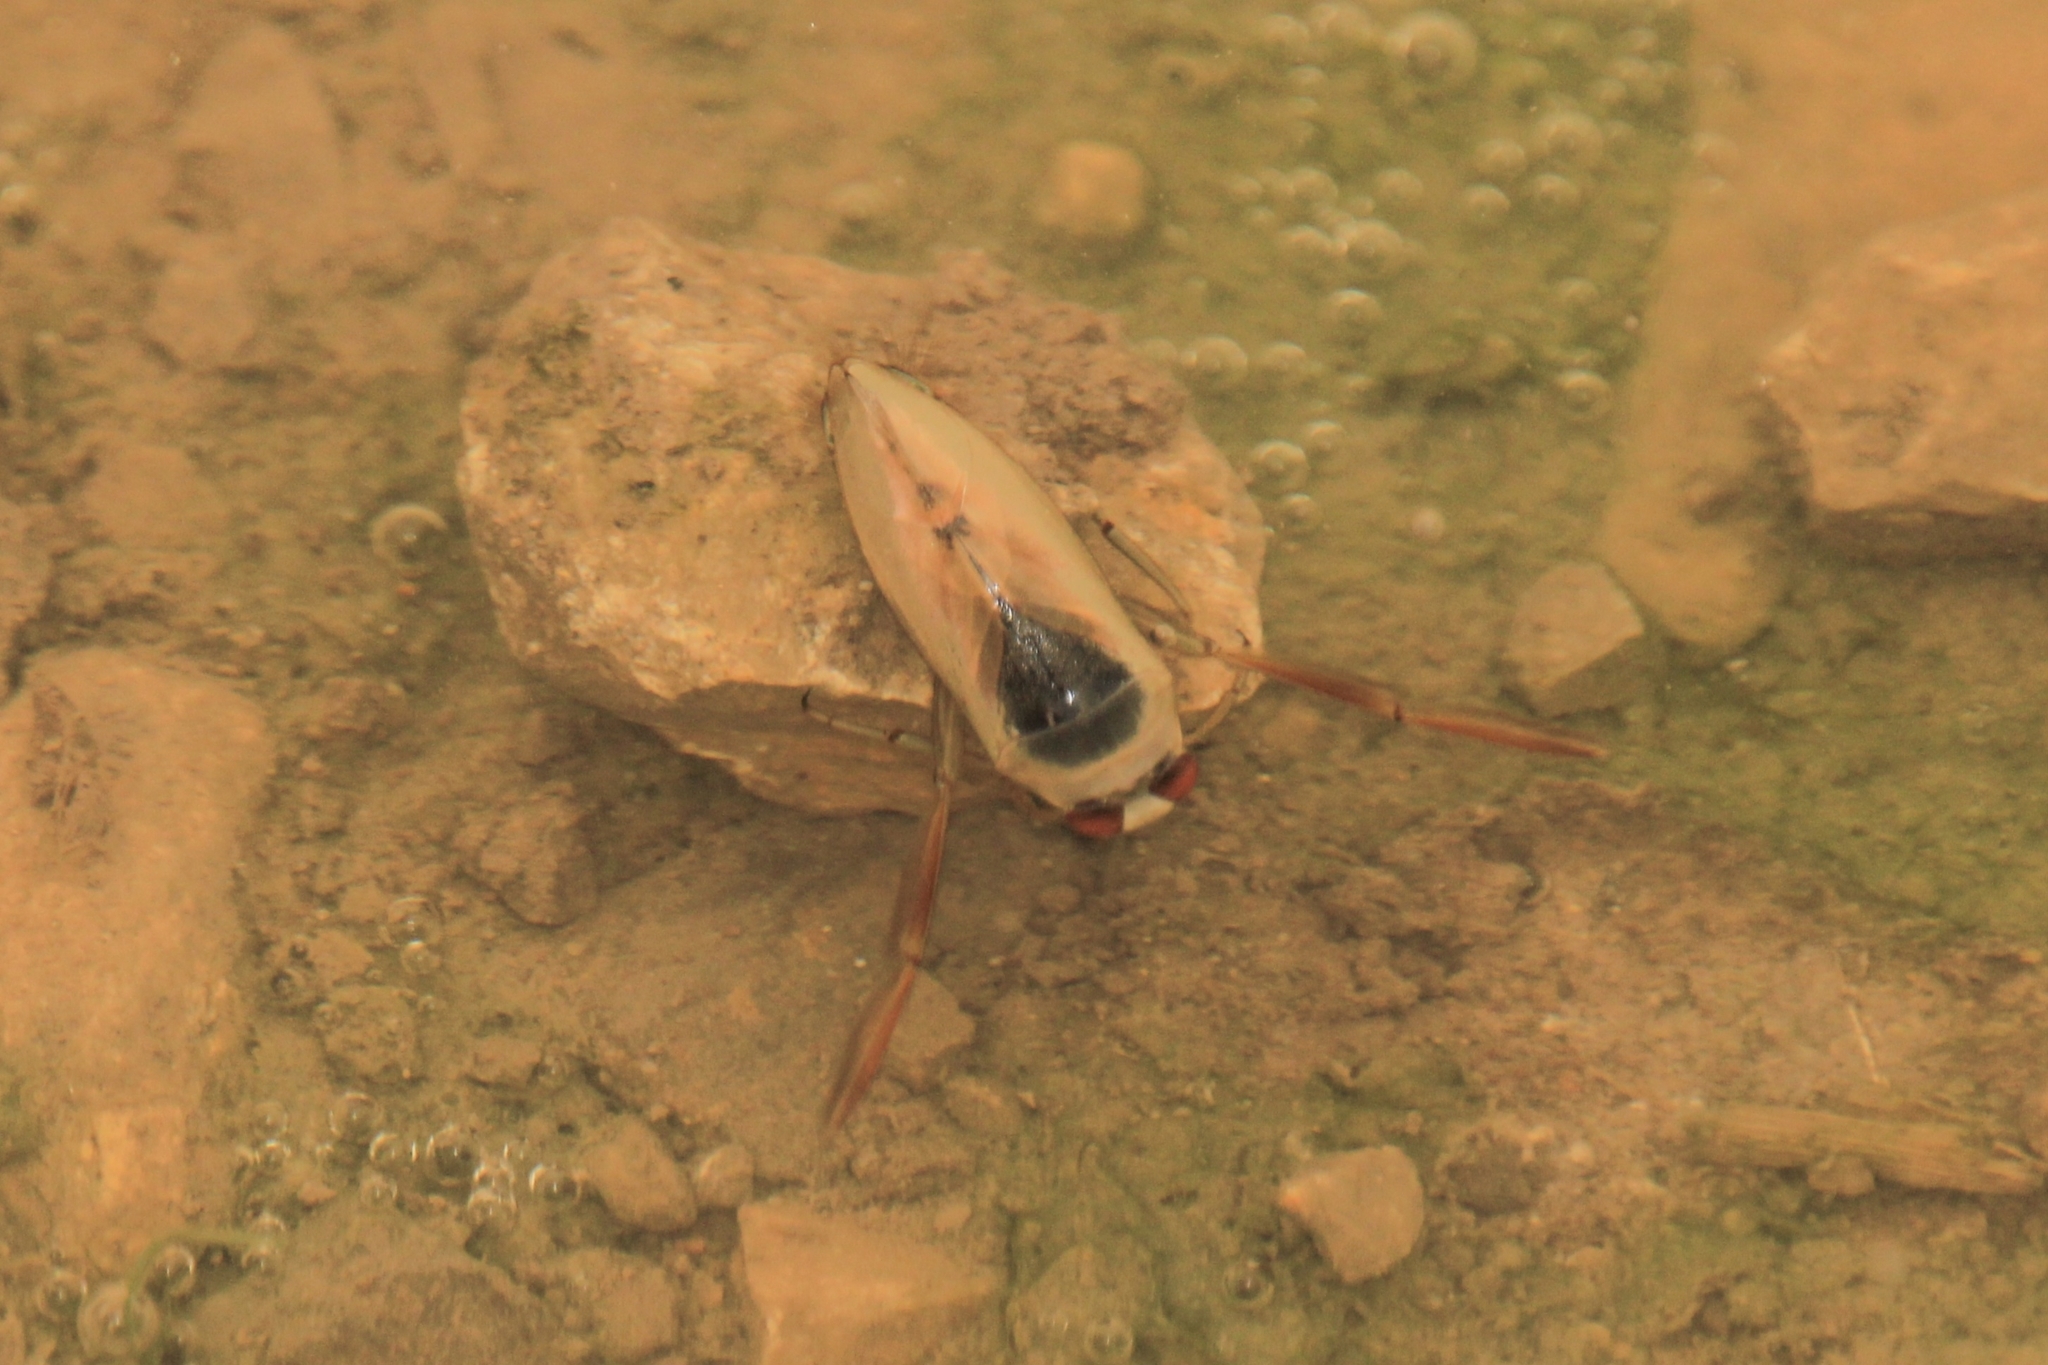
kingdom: Animalia
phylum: Arthropoda
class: Insecta
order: Hemiptera
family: Notonectidae
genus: Notonecta
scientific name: Notonecta glauca
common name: Common water-boatman
